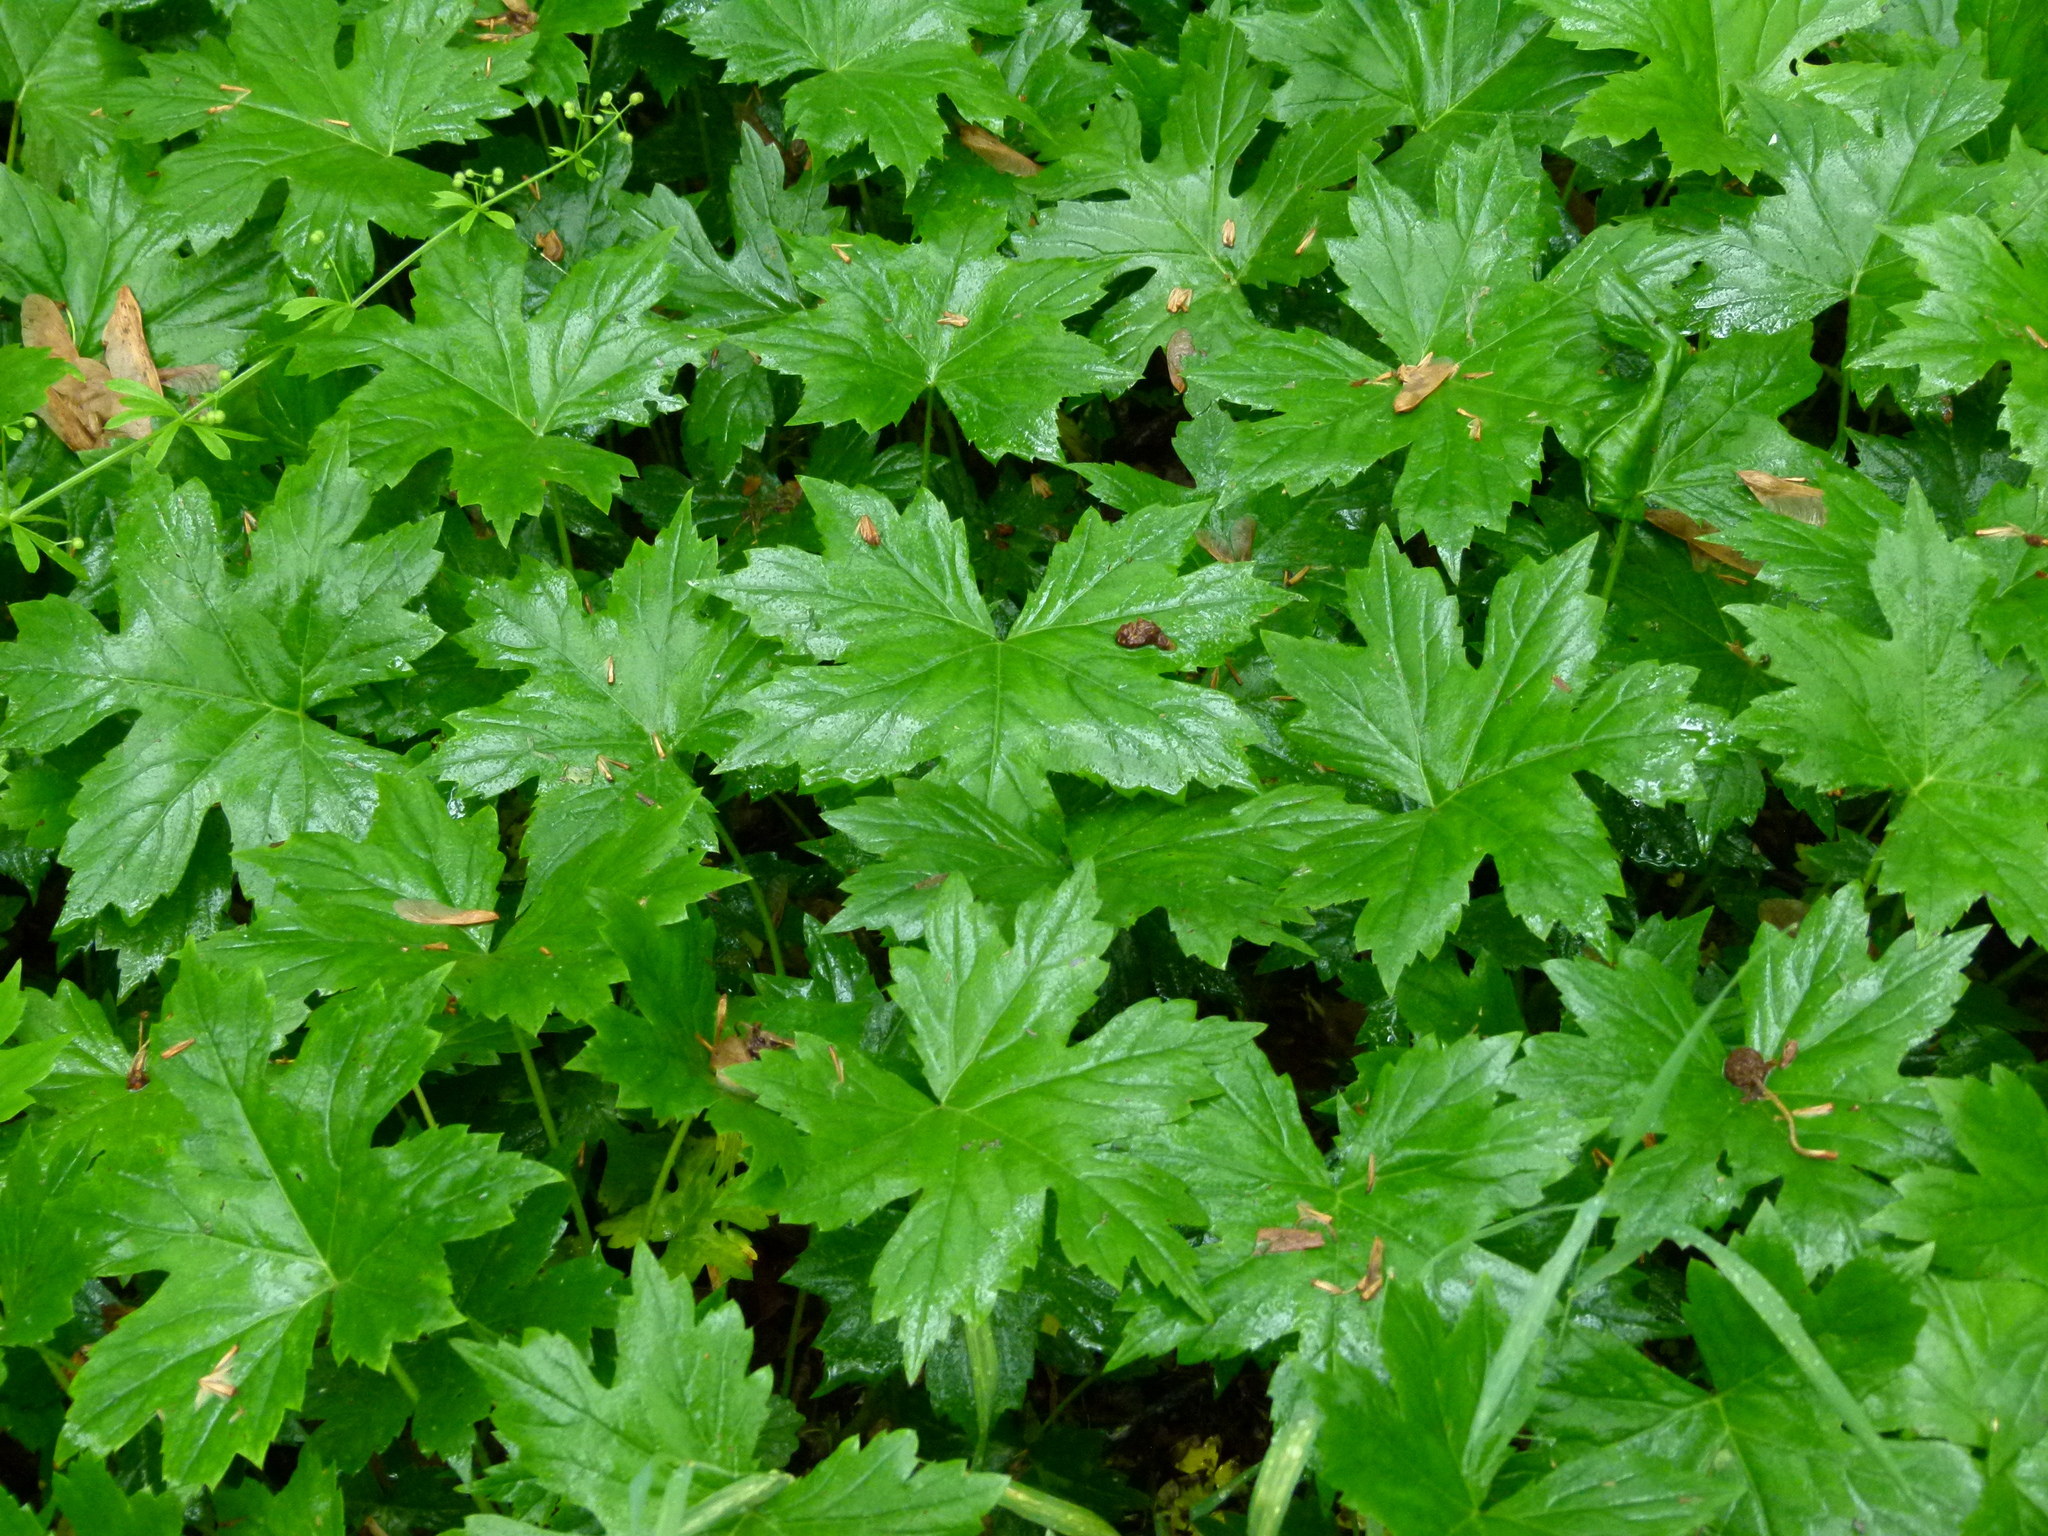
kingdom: Plantae
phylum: Tracheophyta
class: Magnoliopsida
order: Boraginales
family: Hydrophyllaceae
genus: Hydrophyllum
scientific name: Hydrophyllum canadense
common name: Canada waterleaf
